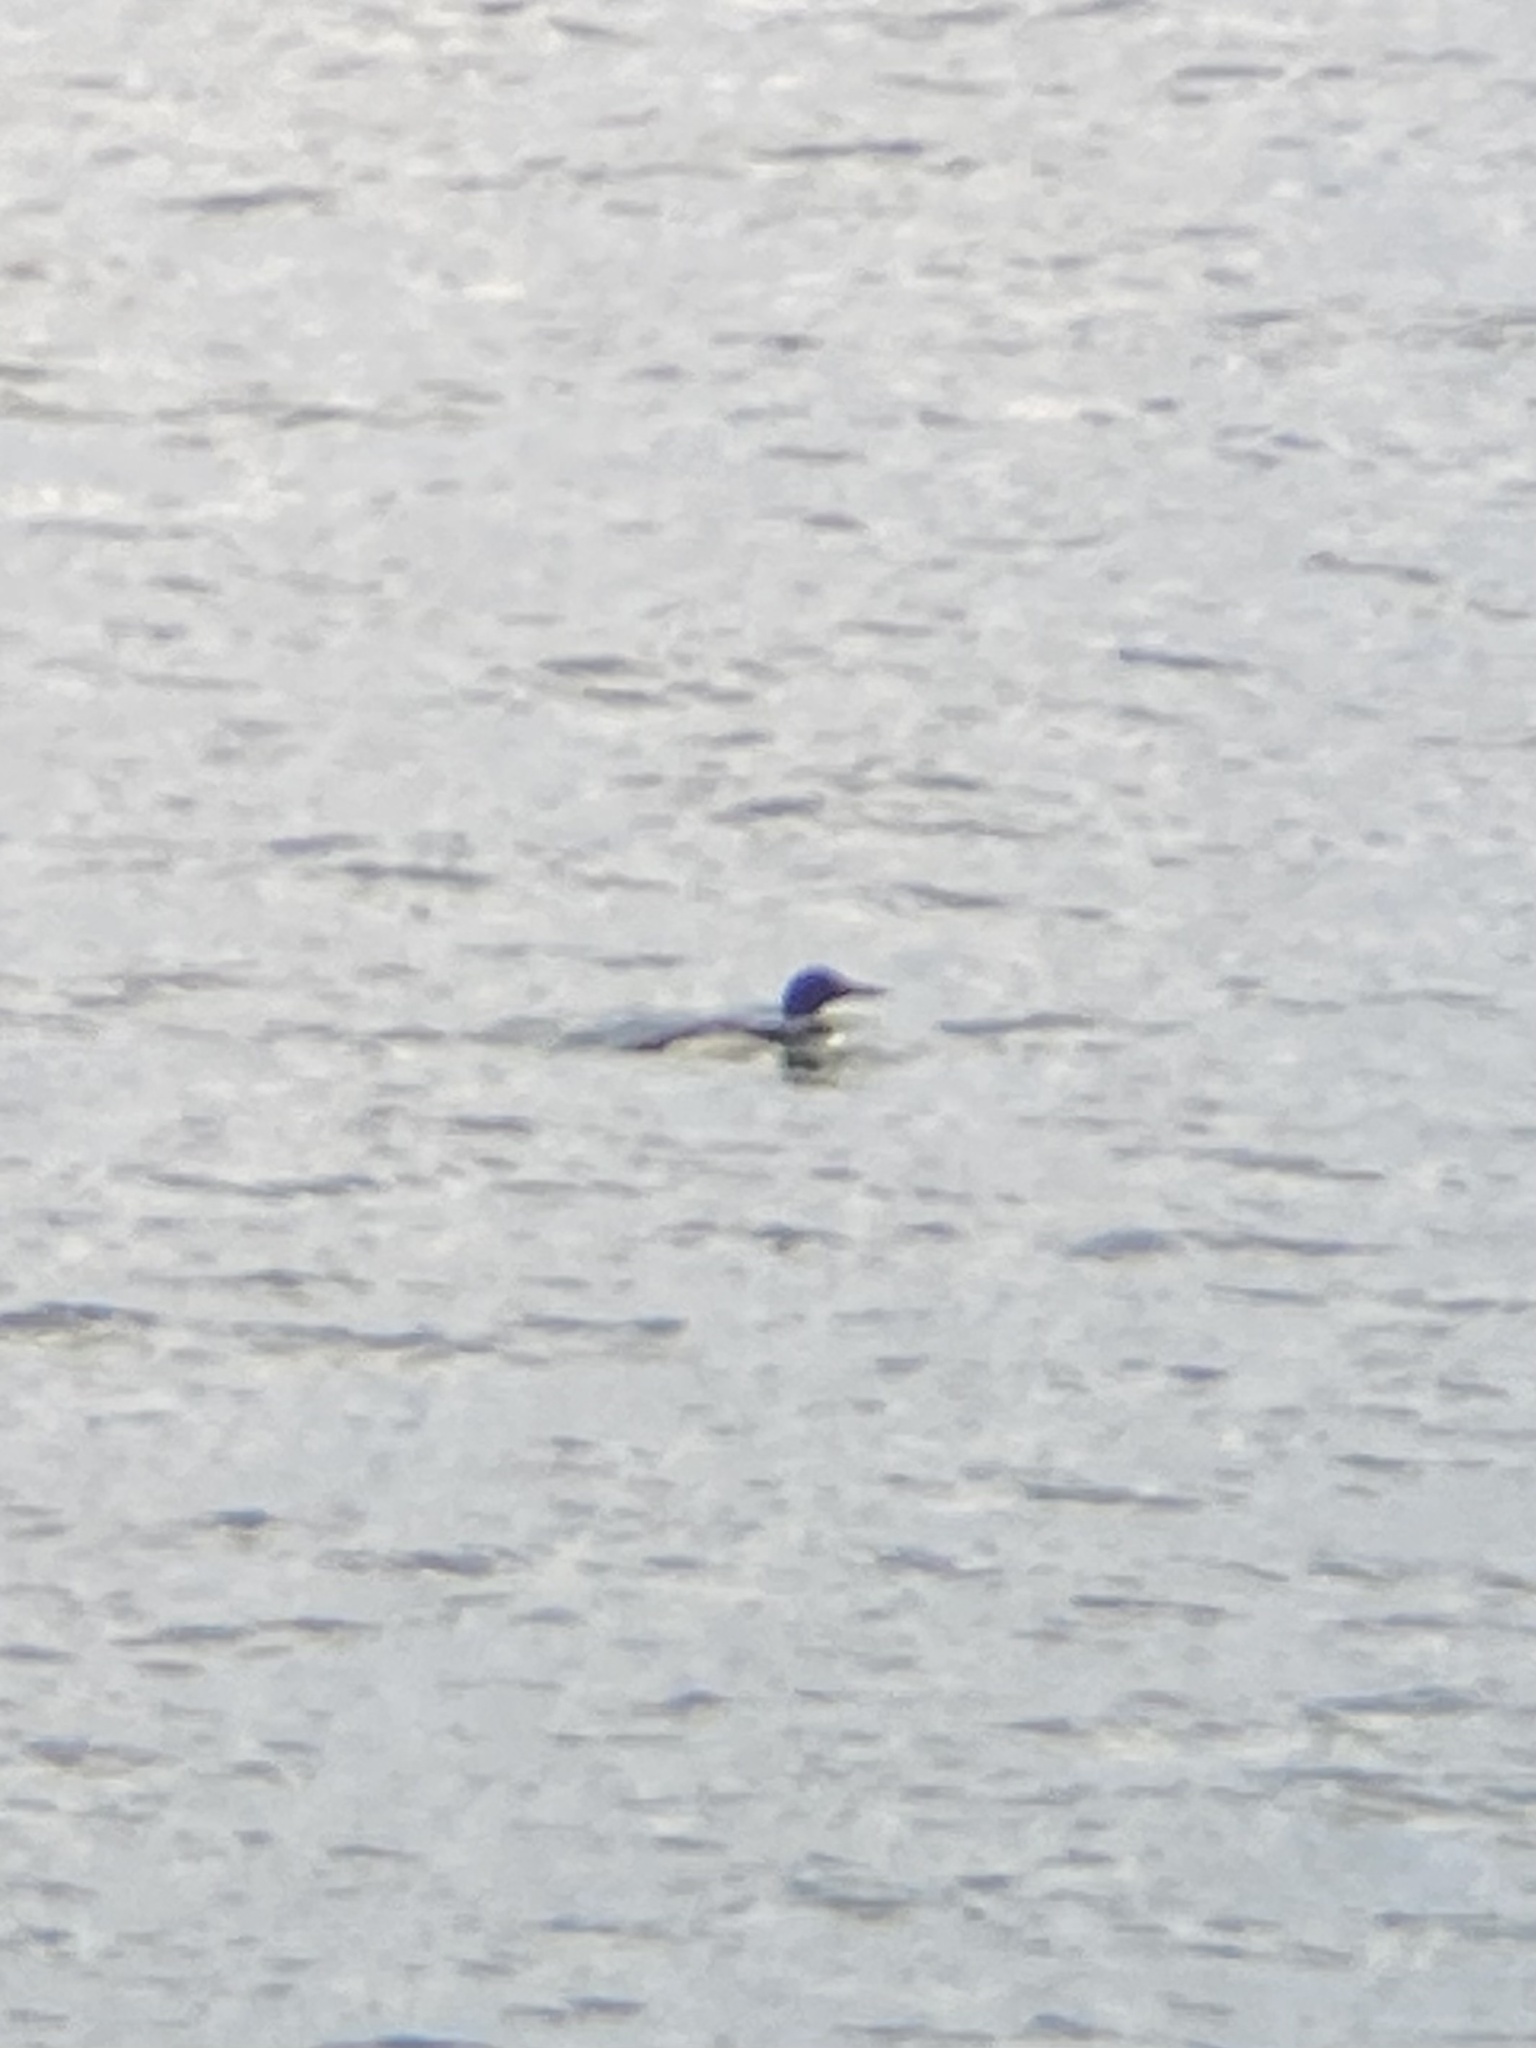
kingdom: Animalia
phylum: Chordata
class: Aves
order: Gaviiformes
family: Gaviidae
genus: Gavia
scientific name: Gavia immer
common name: Common loon
